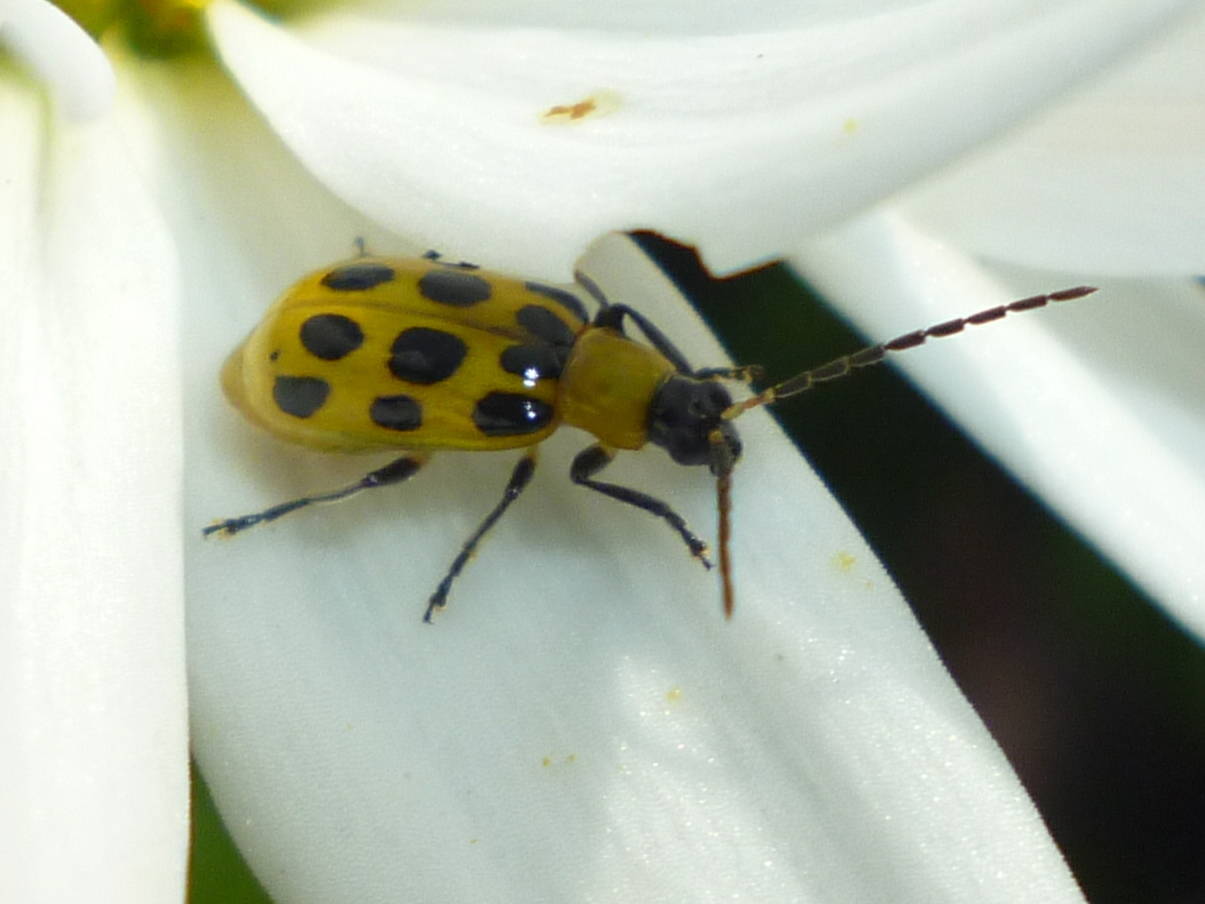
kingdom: Animalia
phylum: Arthropoda
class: Insecta
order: Coleoptera
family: Chrysomelidae
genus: Diabrotica
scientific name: Diabrotica undecimpunctata
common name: Spotted cucumber beetle
